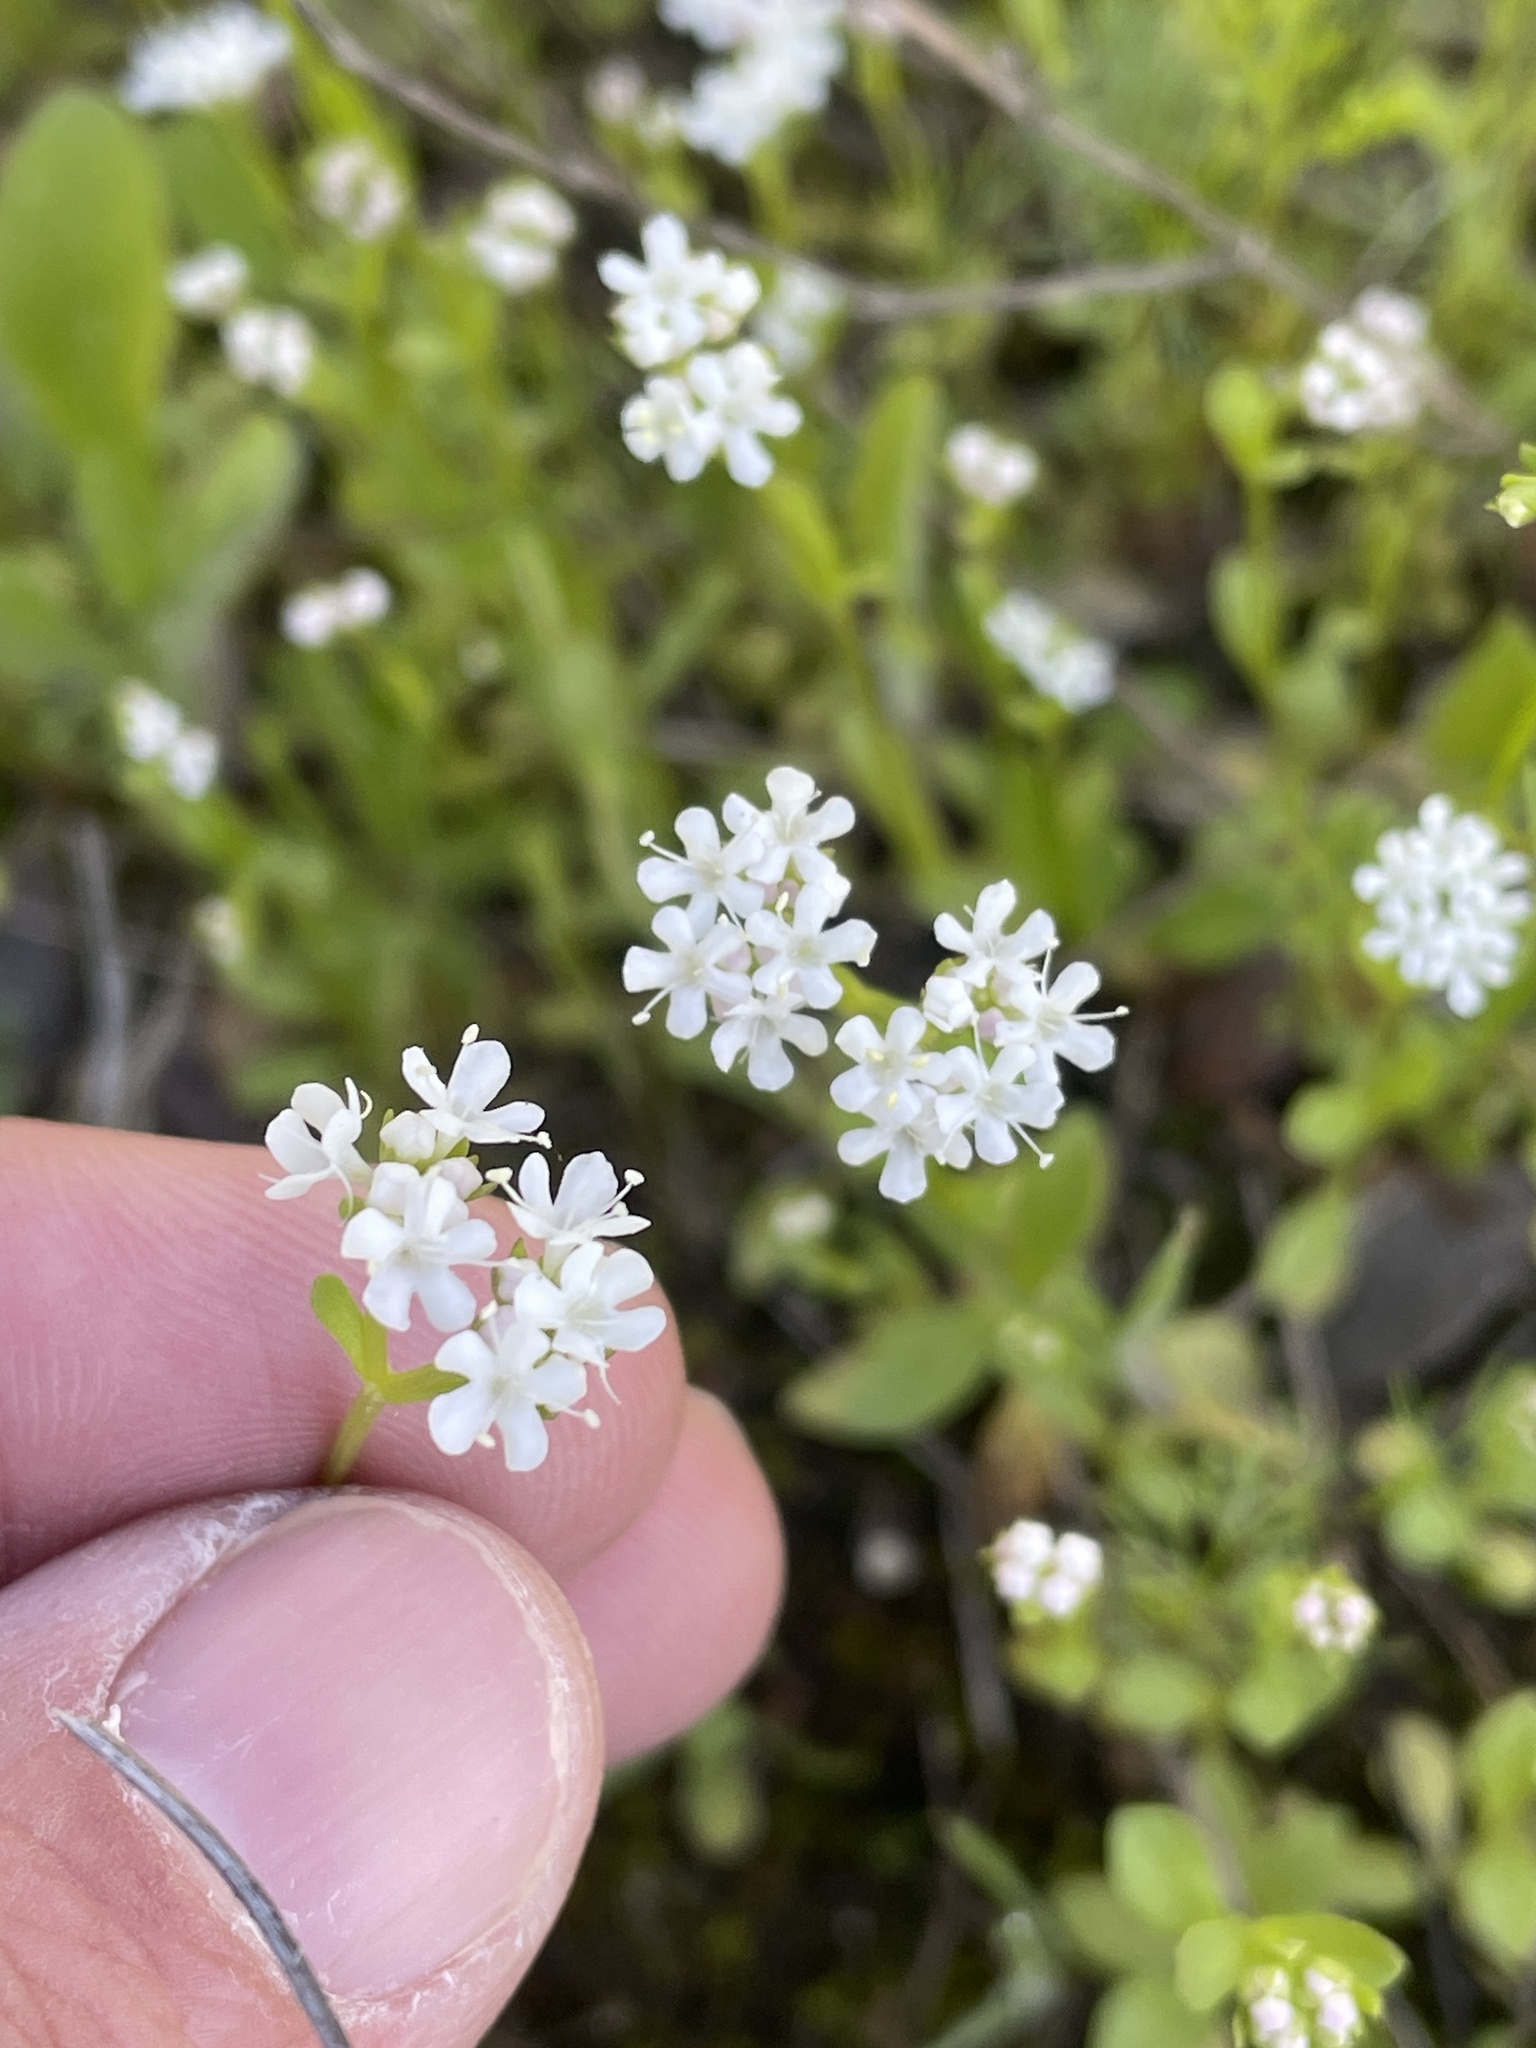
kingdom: Plantae
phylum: Tracheophyta
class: Magnoliopsida
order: Dipsacales
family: Caprifoliaceae
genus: Valerianella
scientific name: Valerianella amarella
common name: Hariy cornsalad
